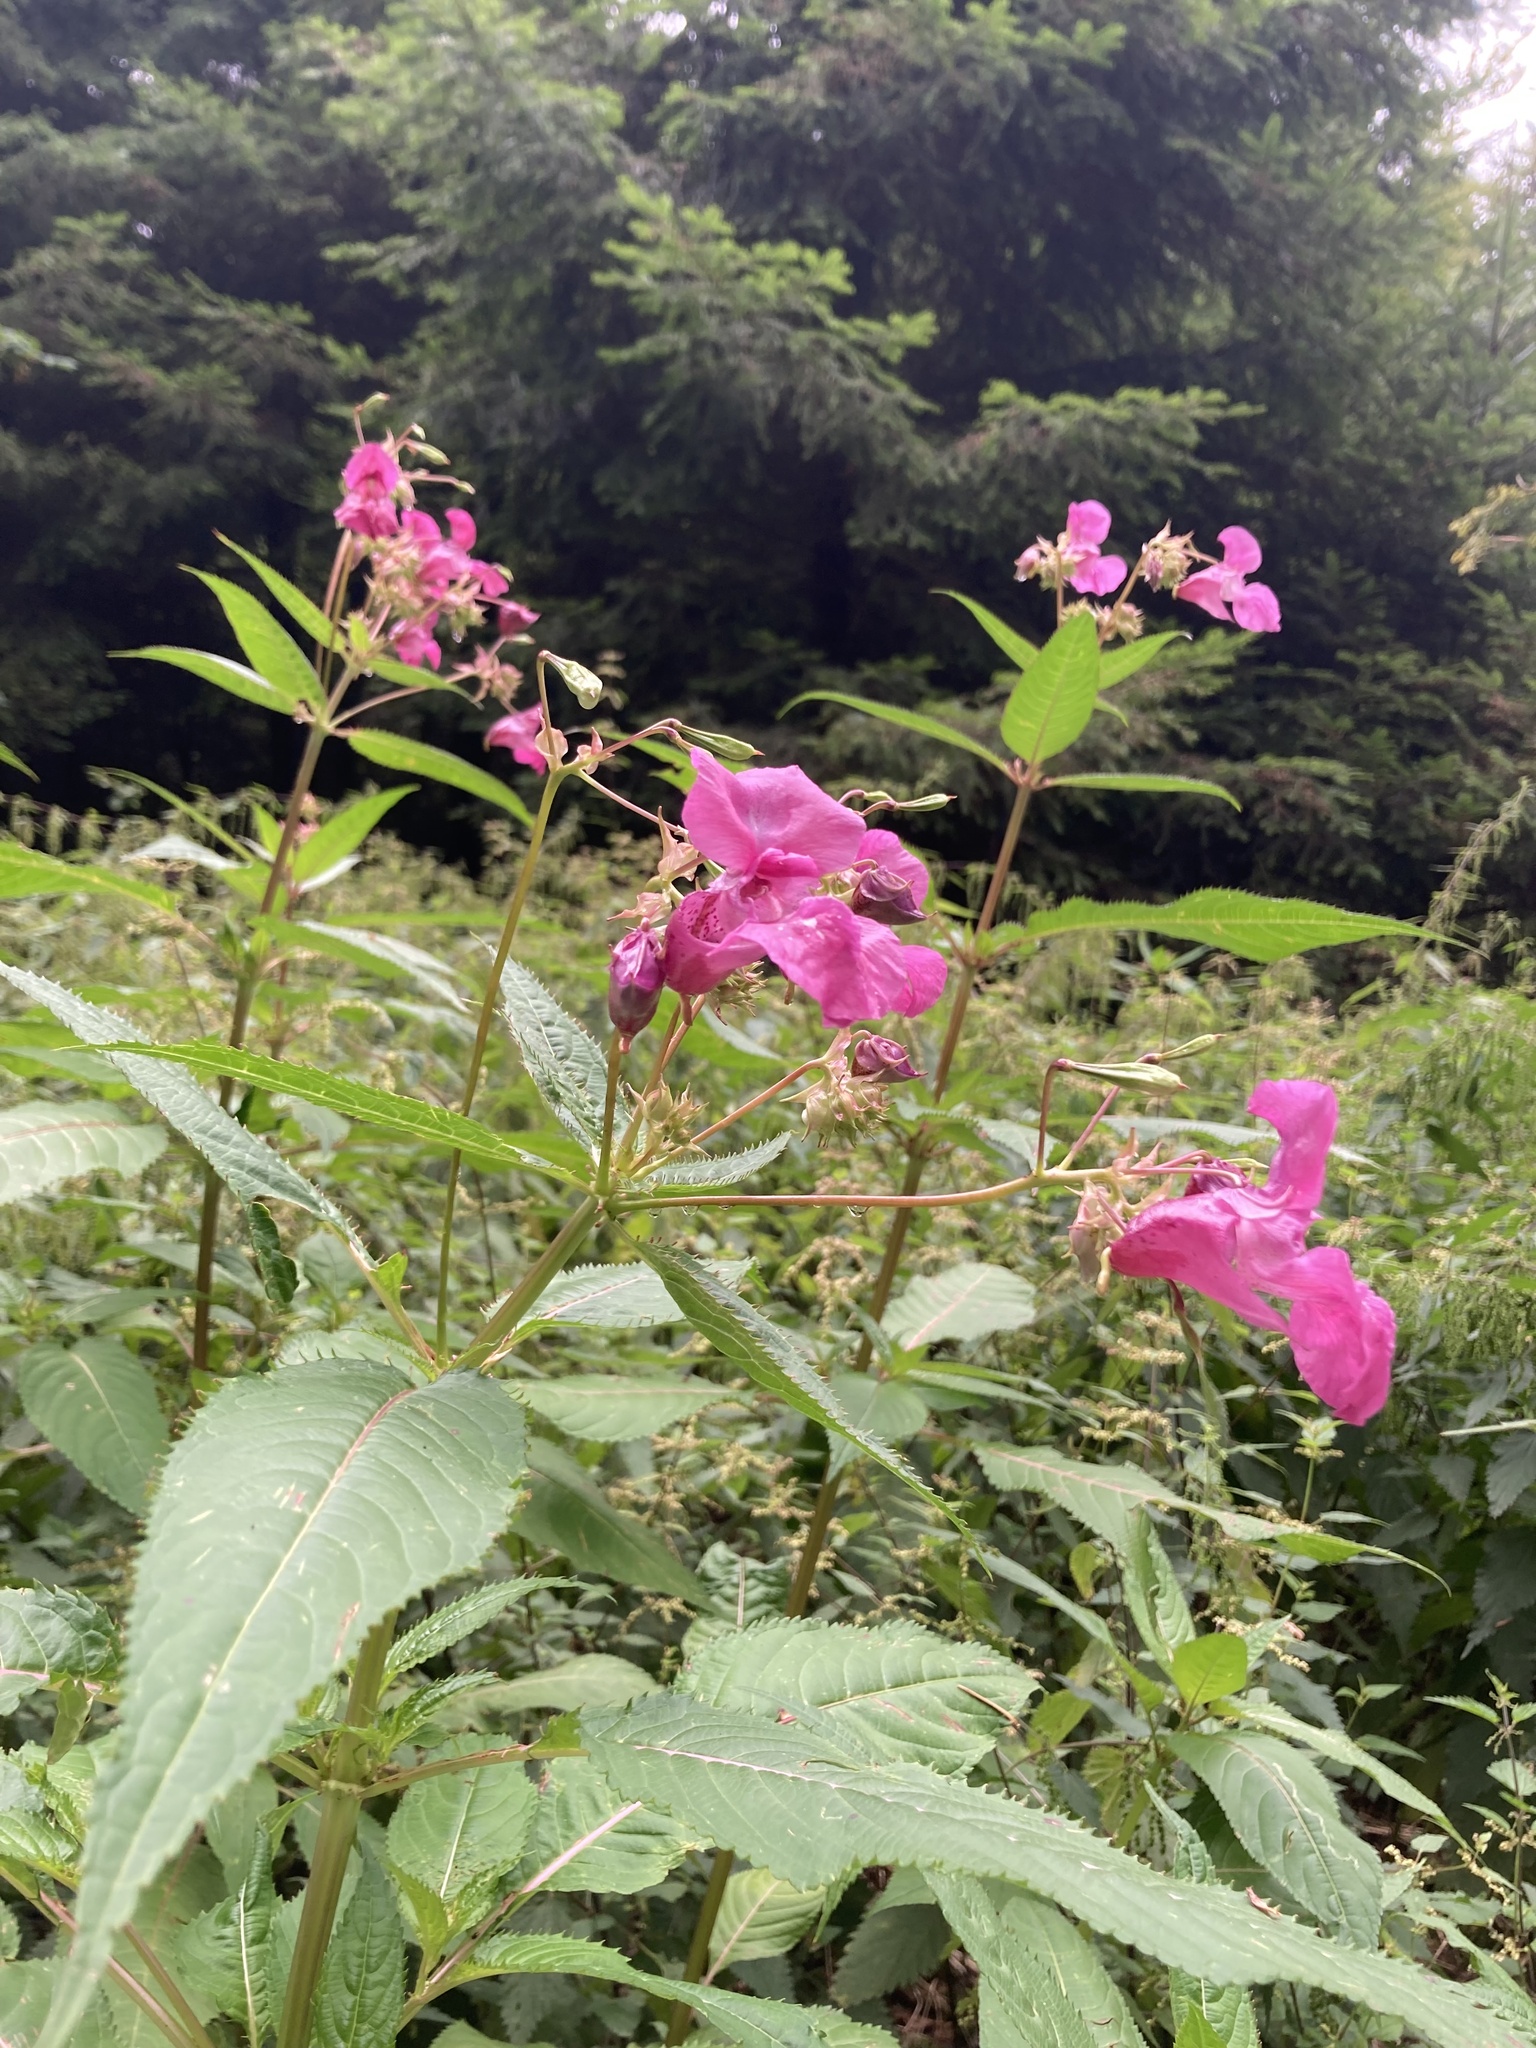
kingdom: Plantae
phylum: Tracheophyta
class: Magnoliopsida
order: Ericales
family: Balsaminaceae
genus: Impatiens
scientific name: Impatiens glandulifera
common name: Himalayan balsam
